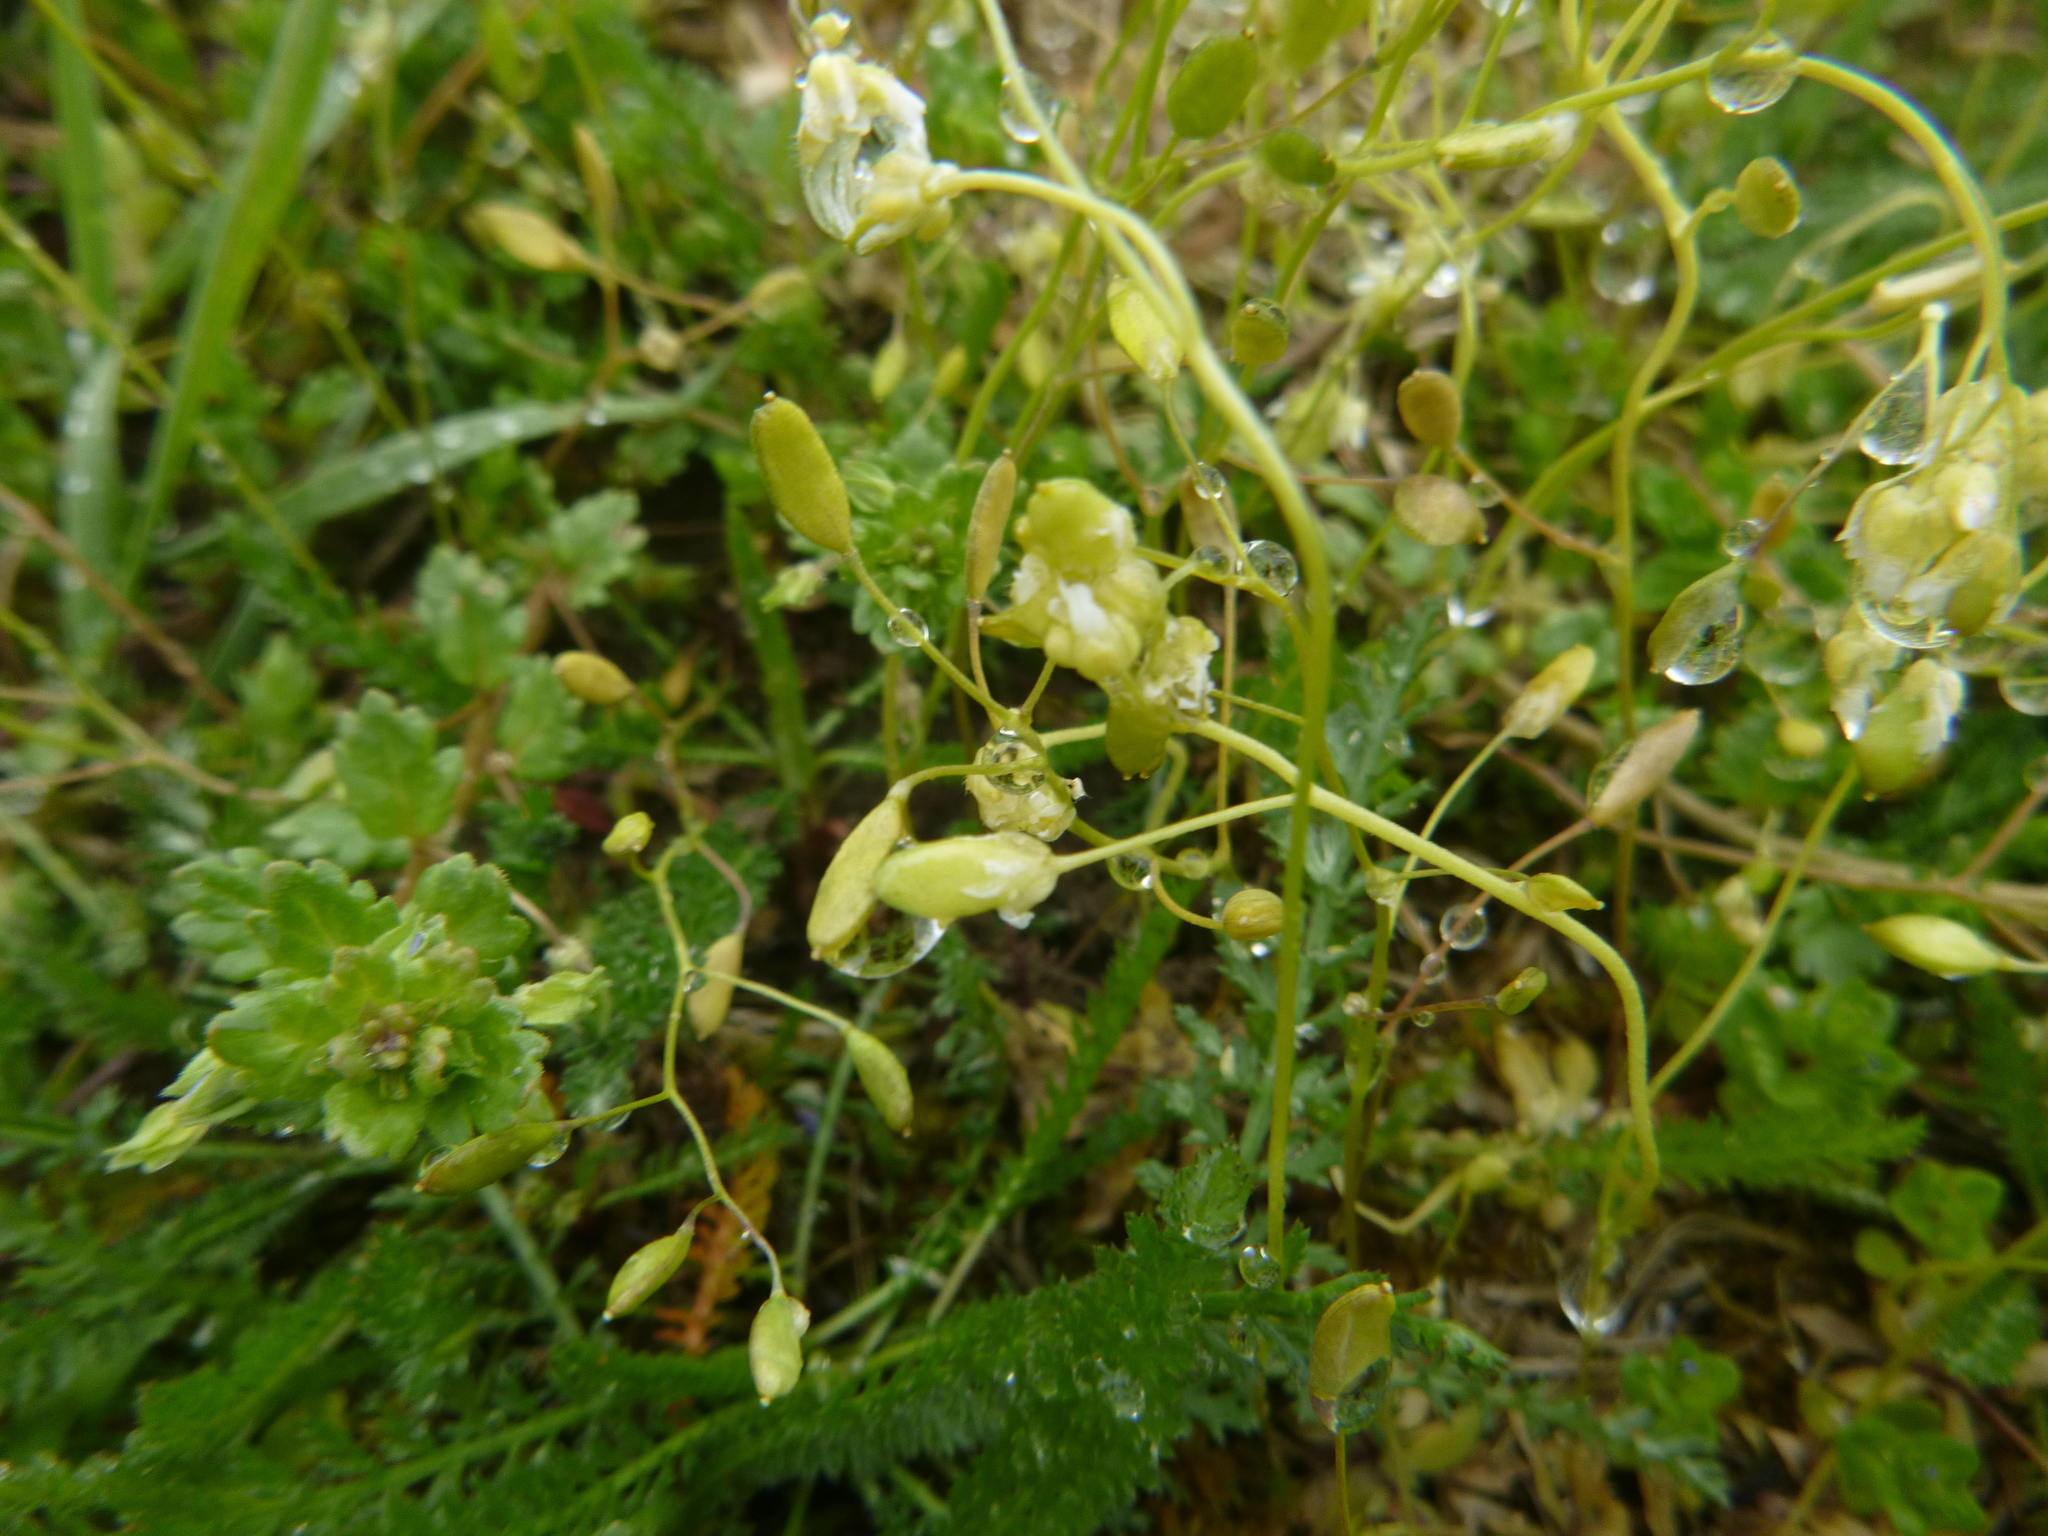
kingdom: Plantae
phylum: Tracheophyta
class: Magnoliopsida
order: Brassicales
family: Brassicaceae
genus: Draba
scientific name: Draba verna
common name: Spring draba
